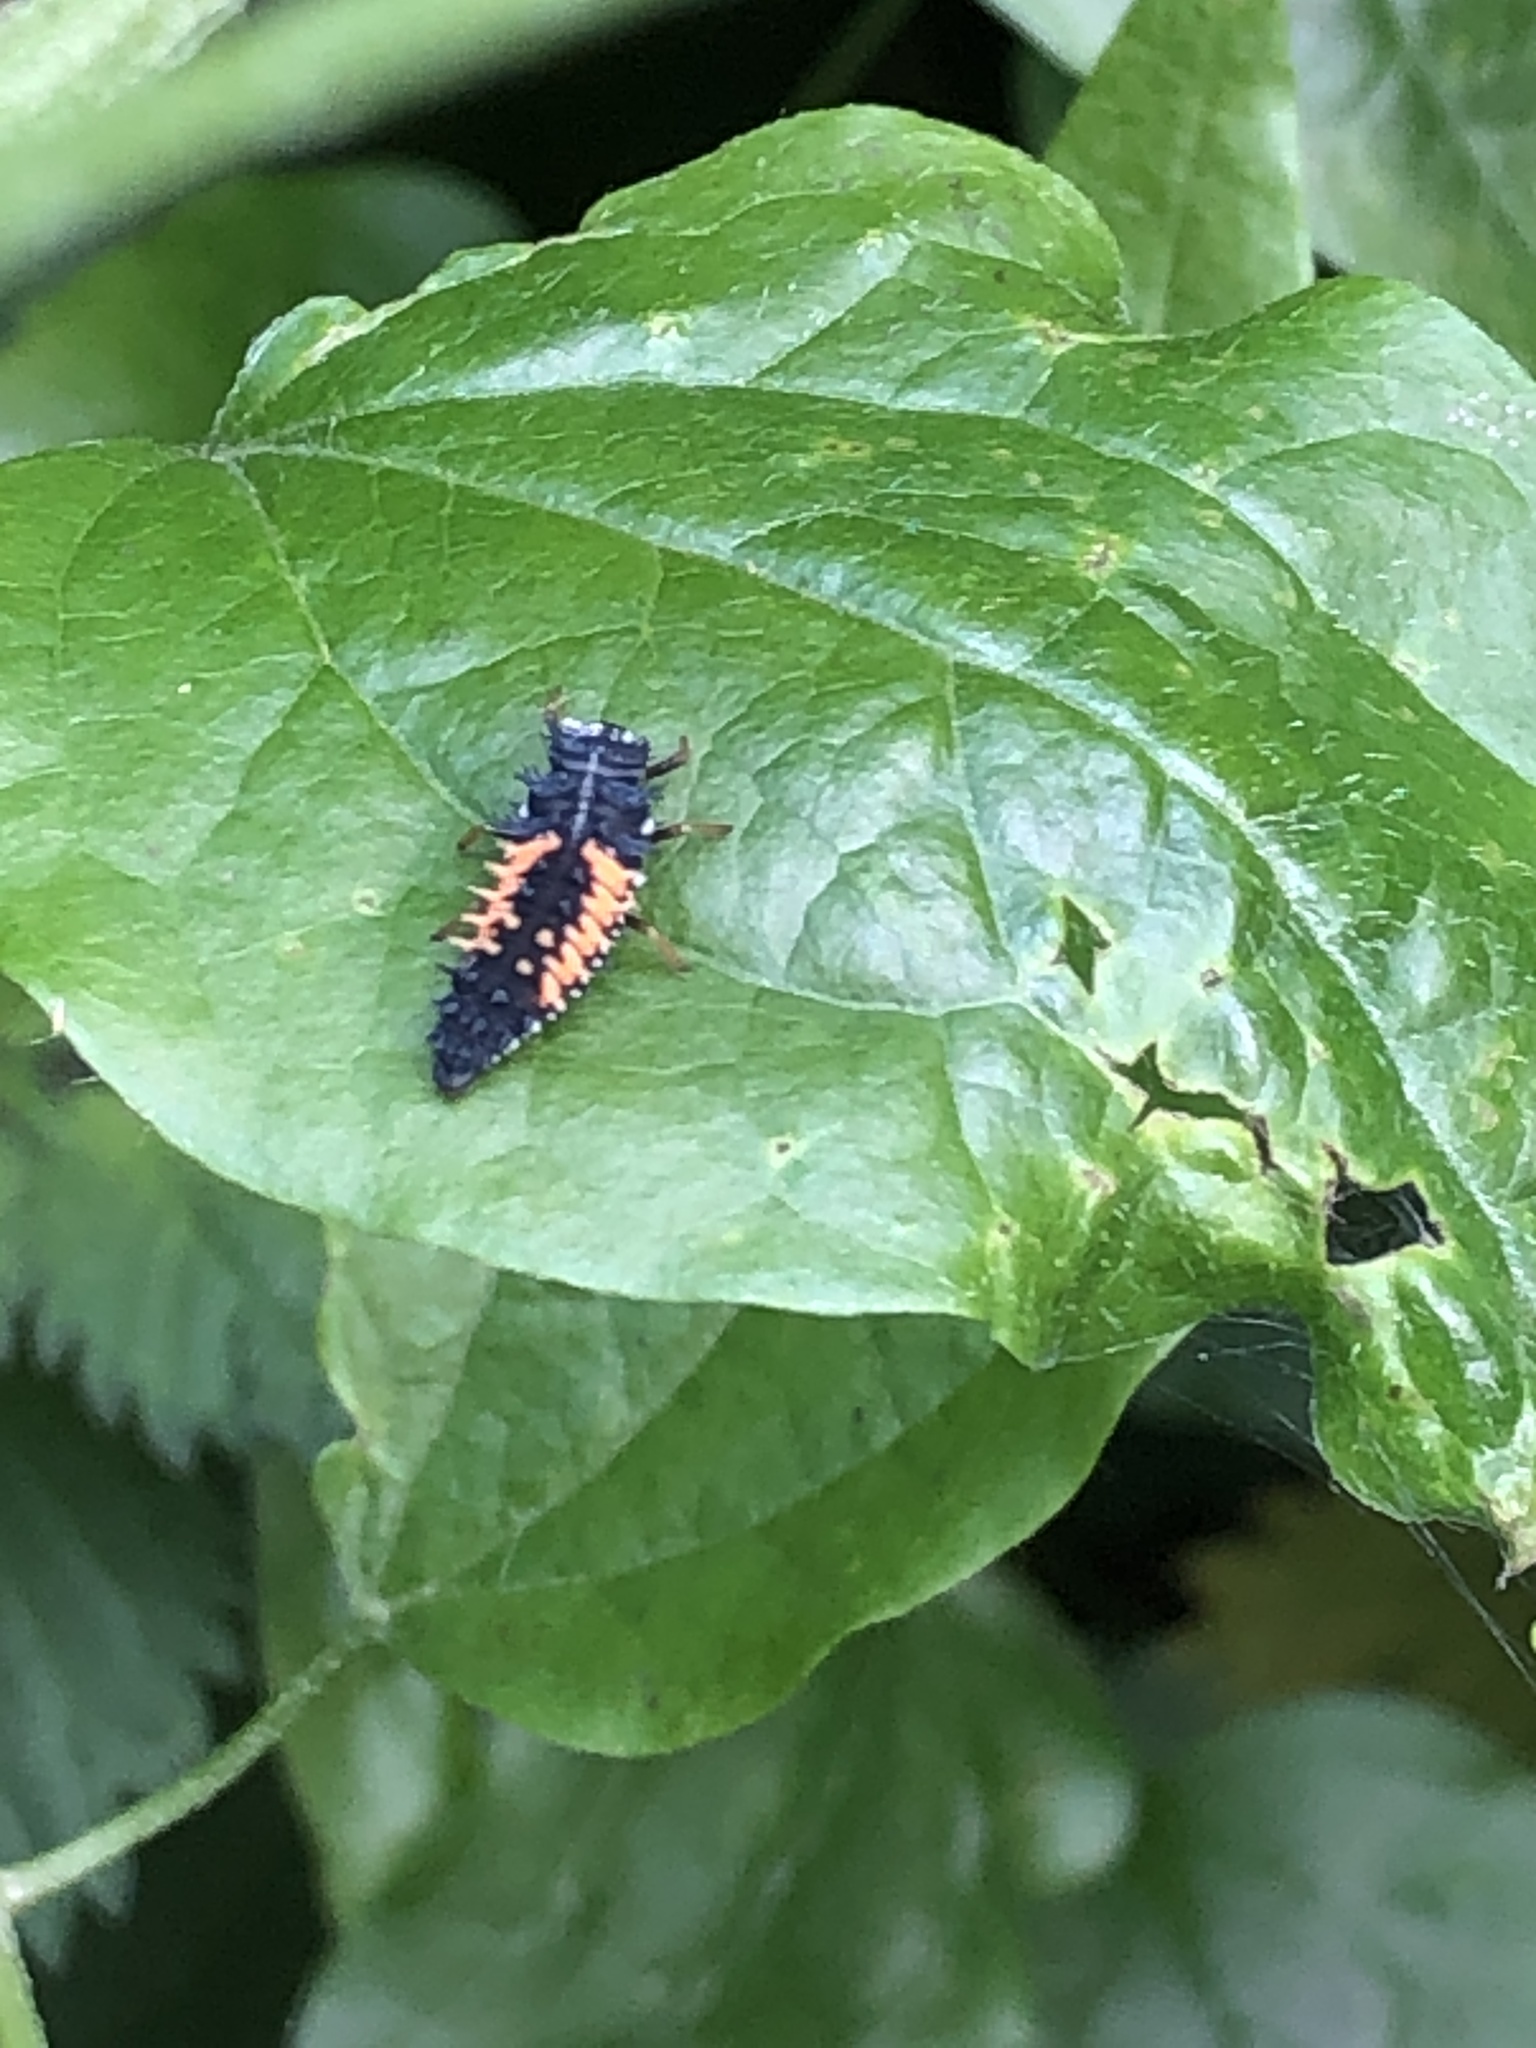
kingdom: Animalia
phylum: Arthropoda
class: Insecta
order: Coleoptera
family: Coccinellidae
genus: Harmonia
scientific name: Harmonia axyridis
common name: Harlequin ladybird
